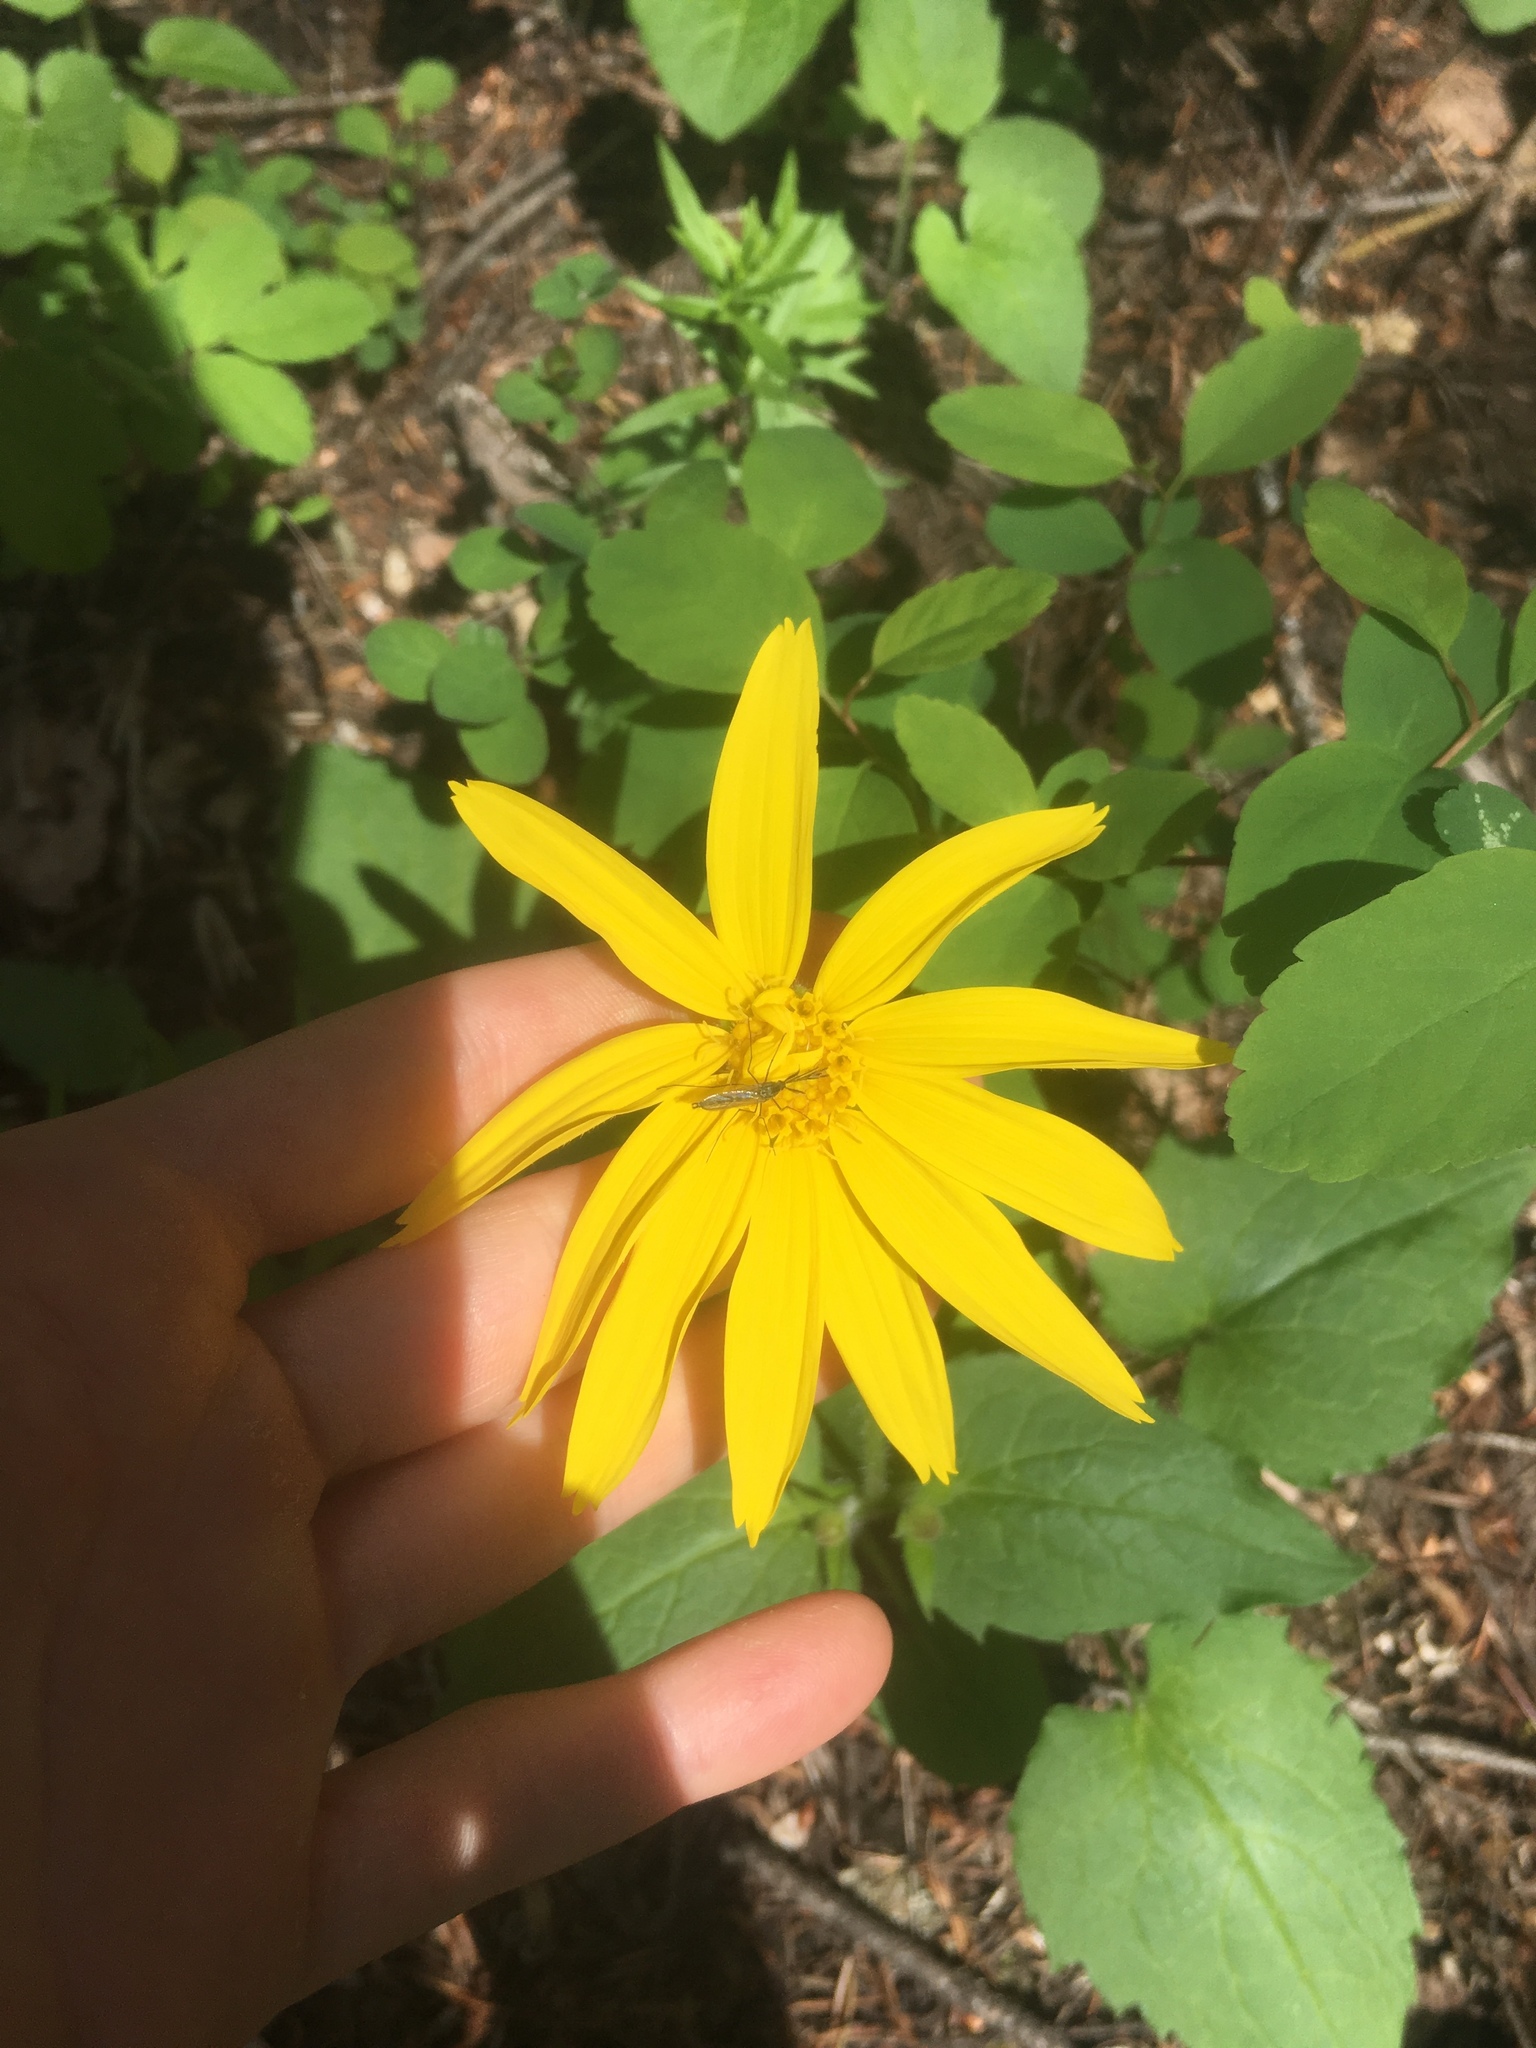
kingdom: Plantae
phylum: Tracheophyta
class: Magnoliopsida
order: Asterales
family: Asteraceae
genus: Arnica
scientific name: Arnica cordifolia
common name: Heart-leaf arnica
